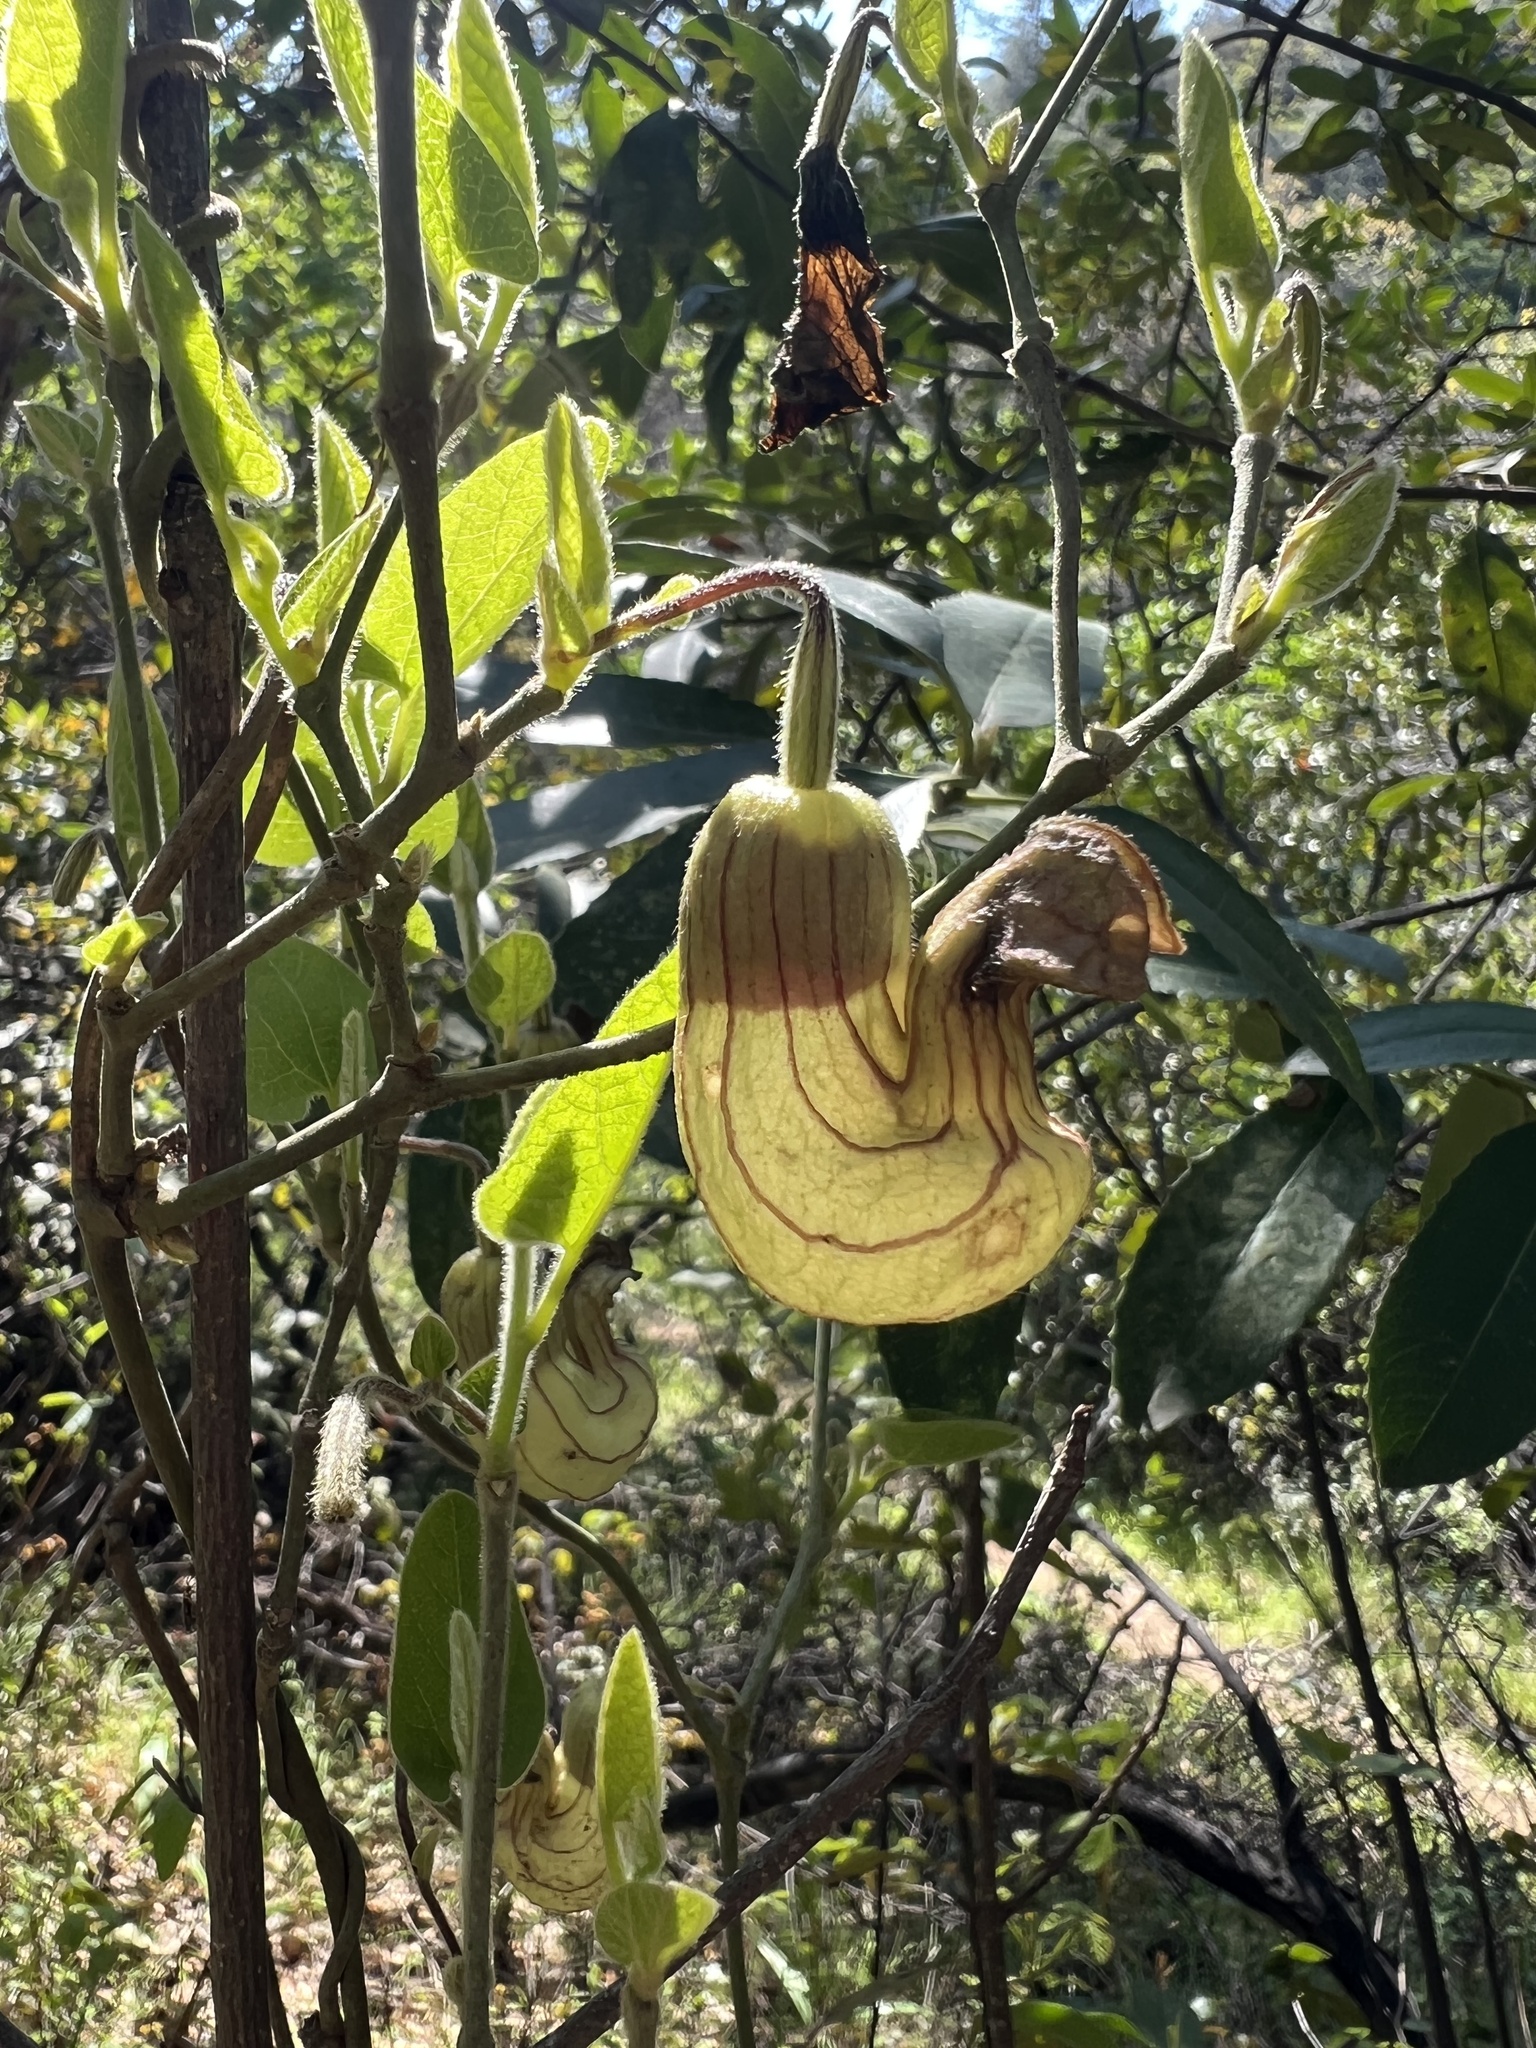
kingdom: Plantae
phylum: Tracheophyta
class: Magnoliopsida
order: Piperales
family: Aristolochiaceae
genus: Isotrema
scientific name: Isotrema californicum
